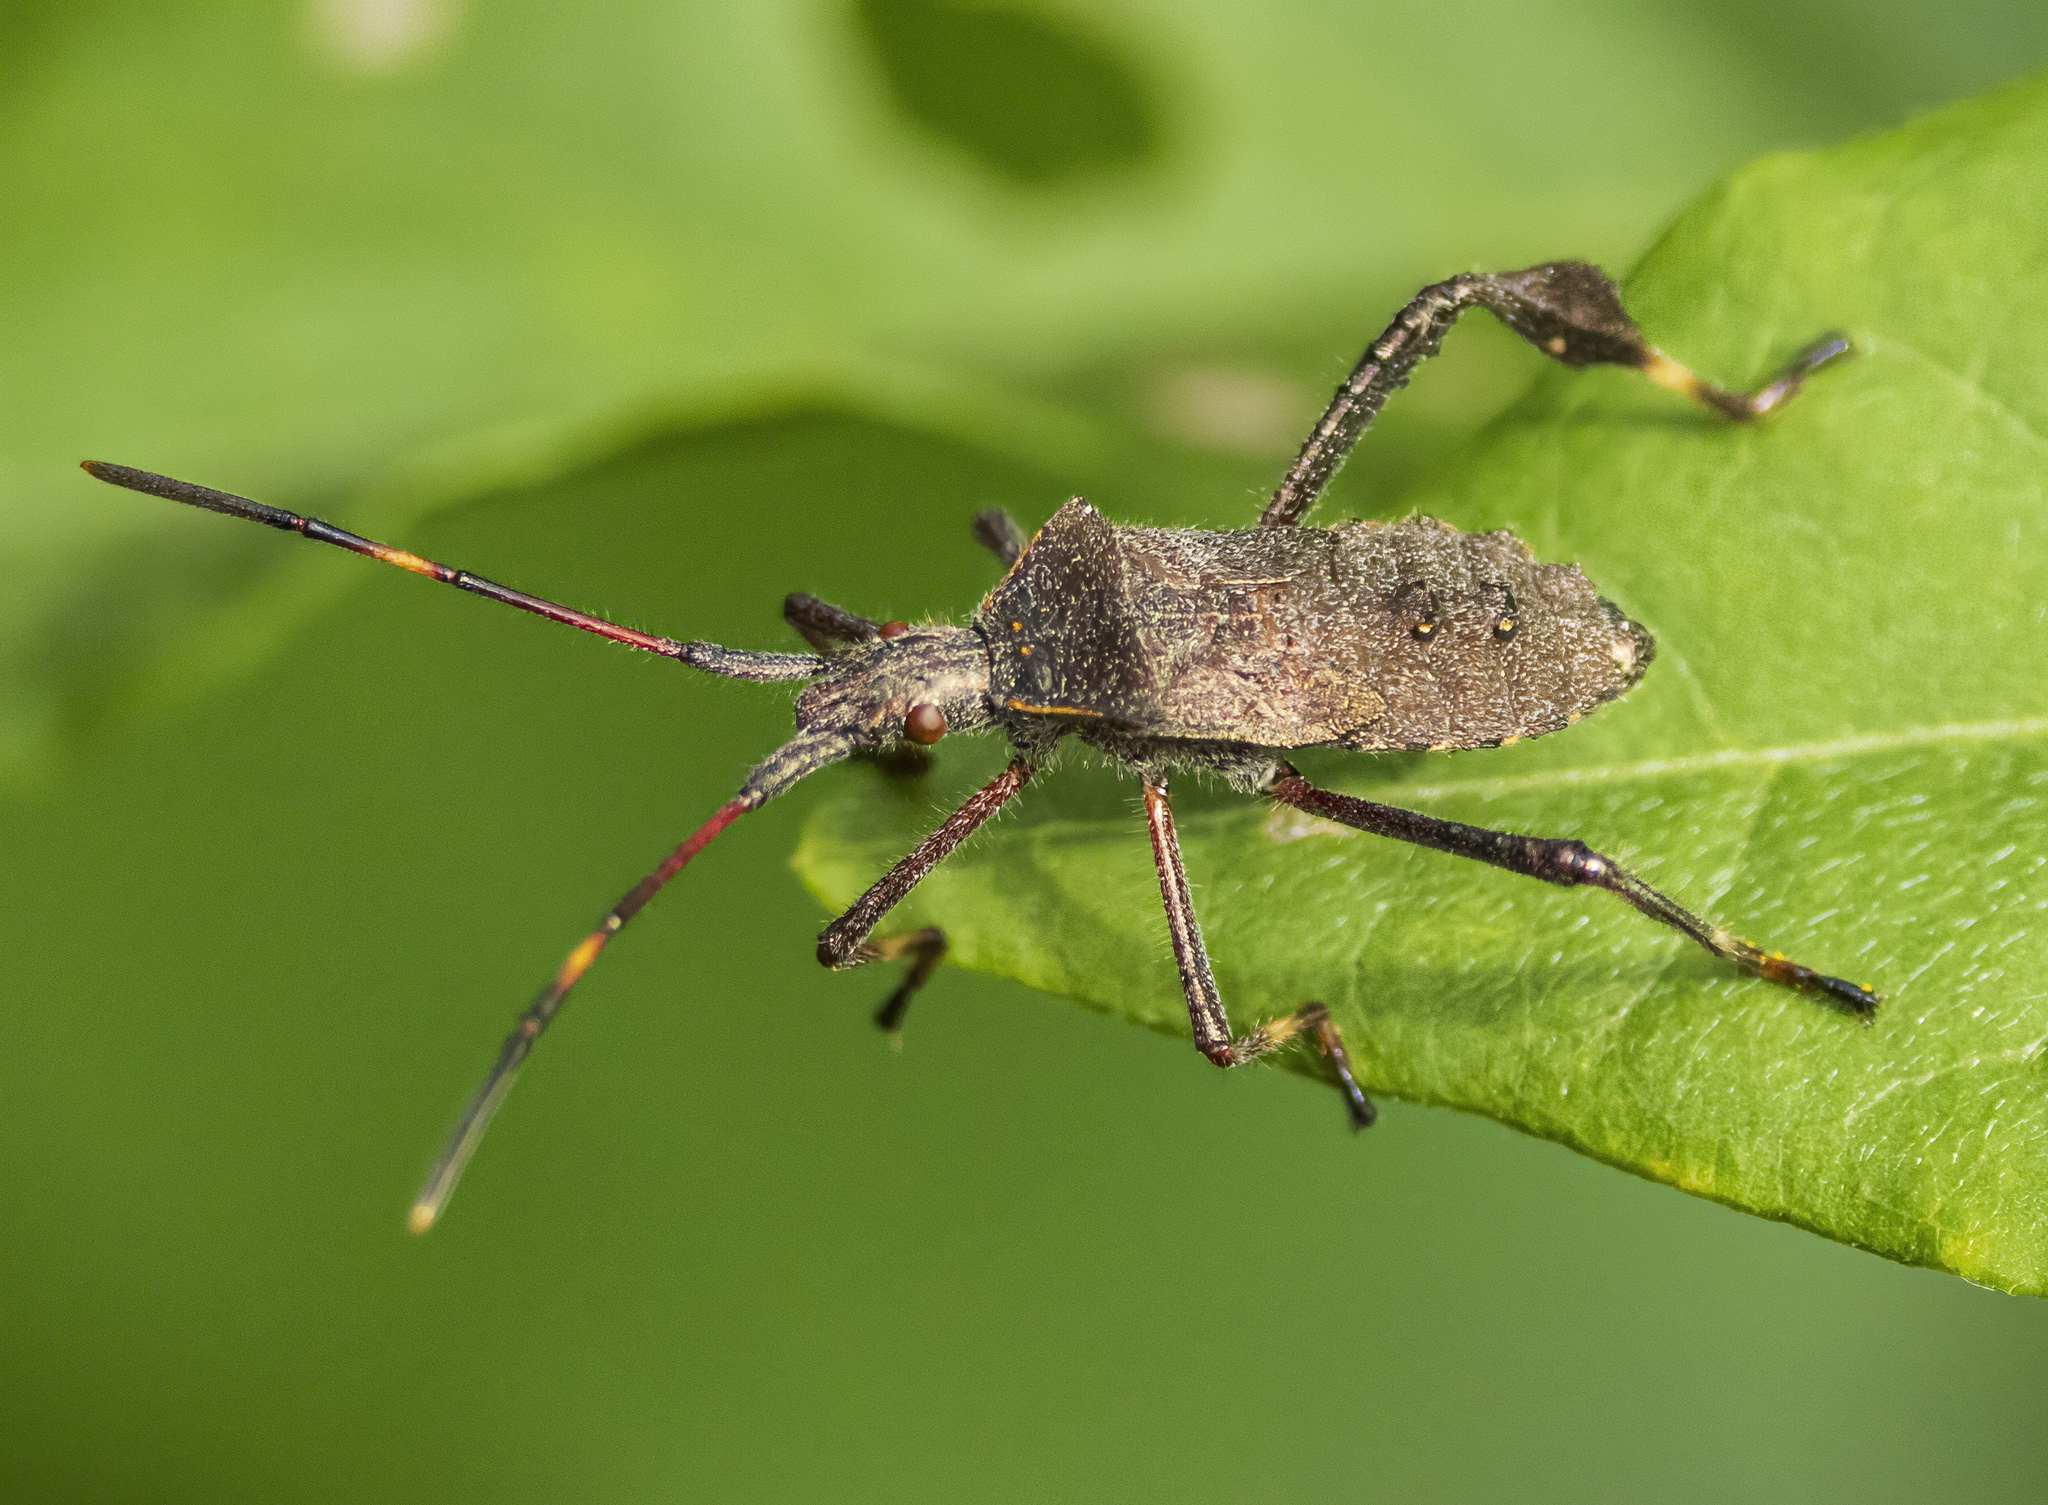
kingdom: Animalia
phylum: Arthropoda
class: Insecta
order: Hemiptera
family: Coreidae
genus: Leptoglossus
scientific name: Leptoglossus
